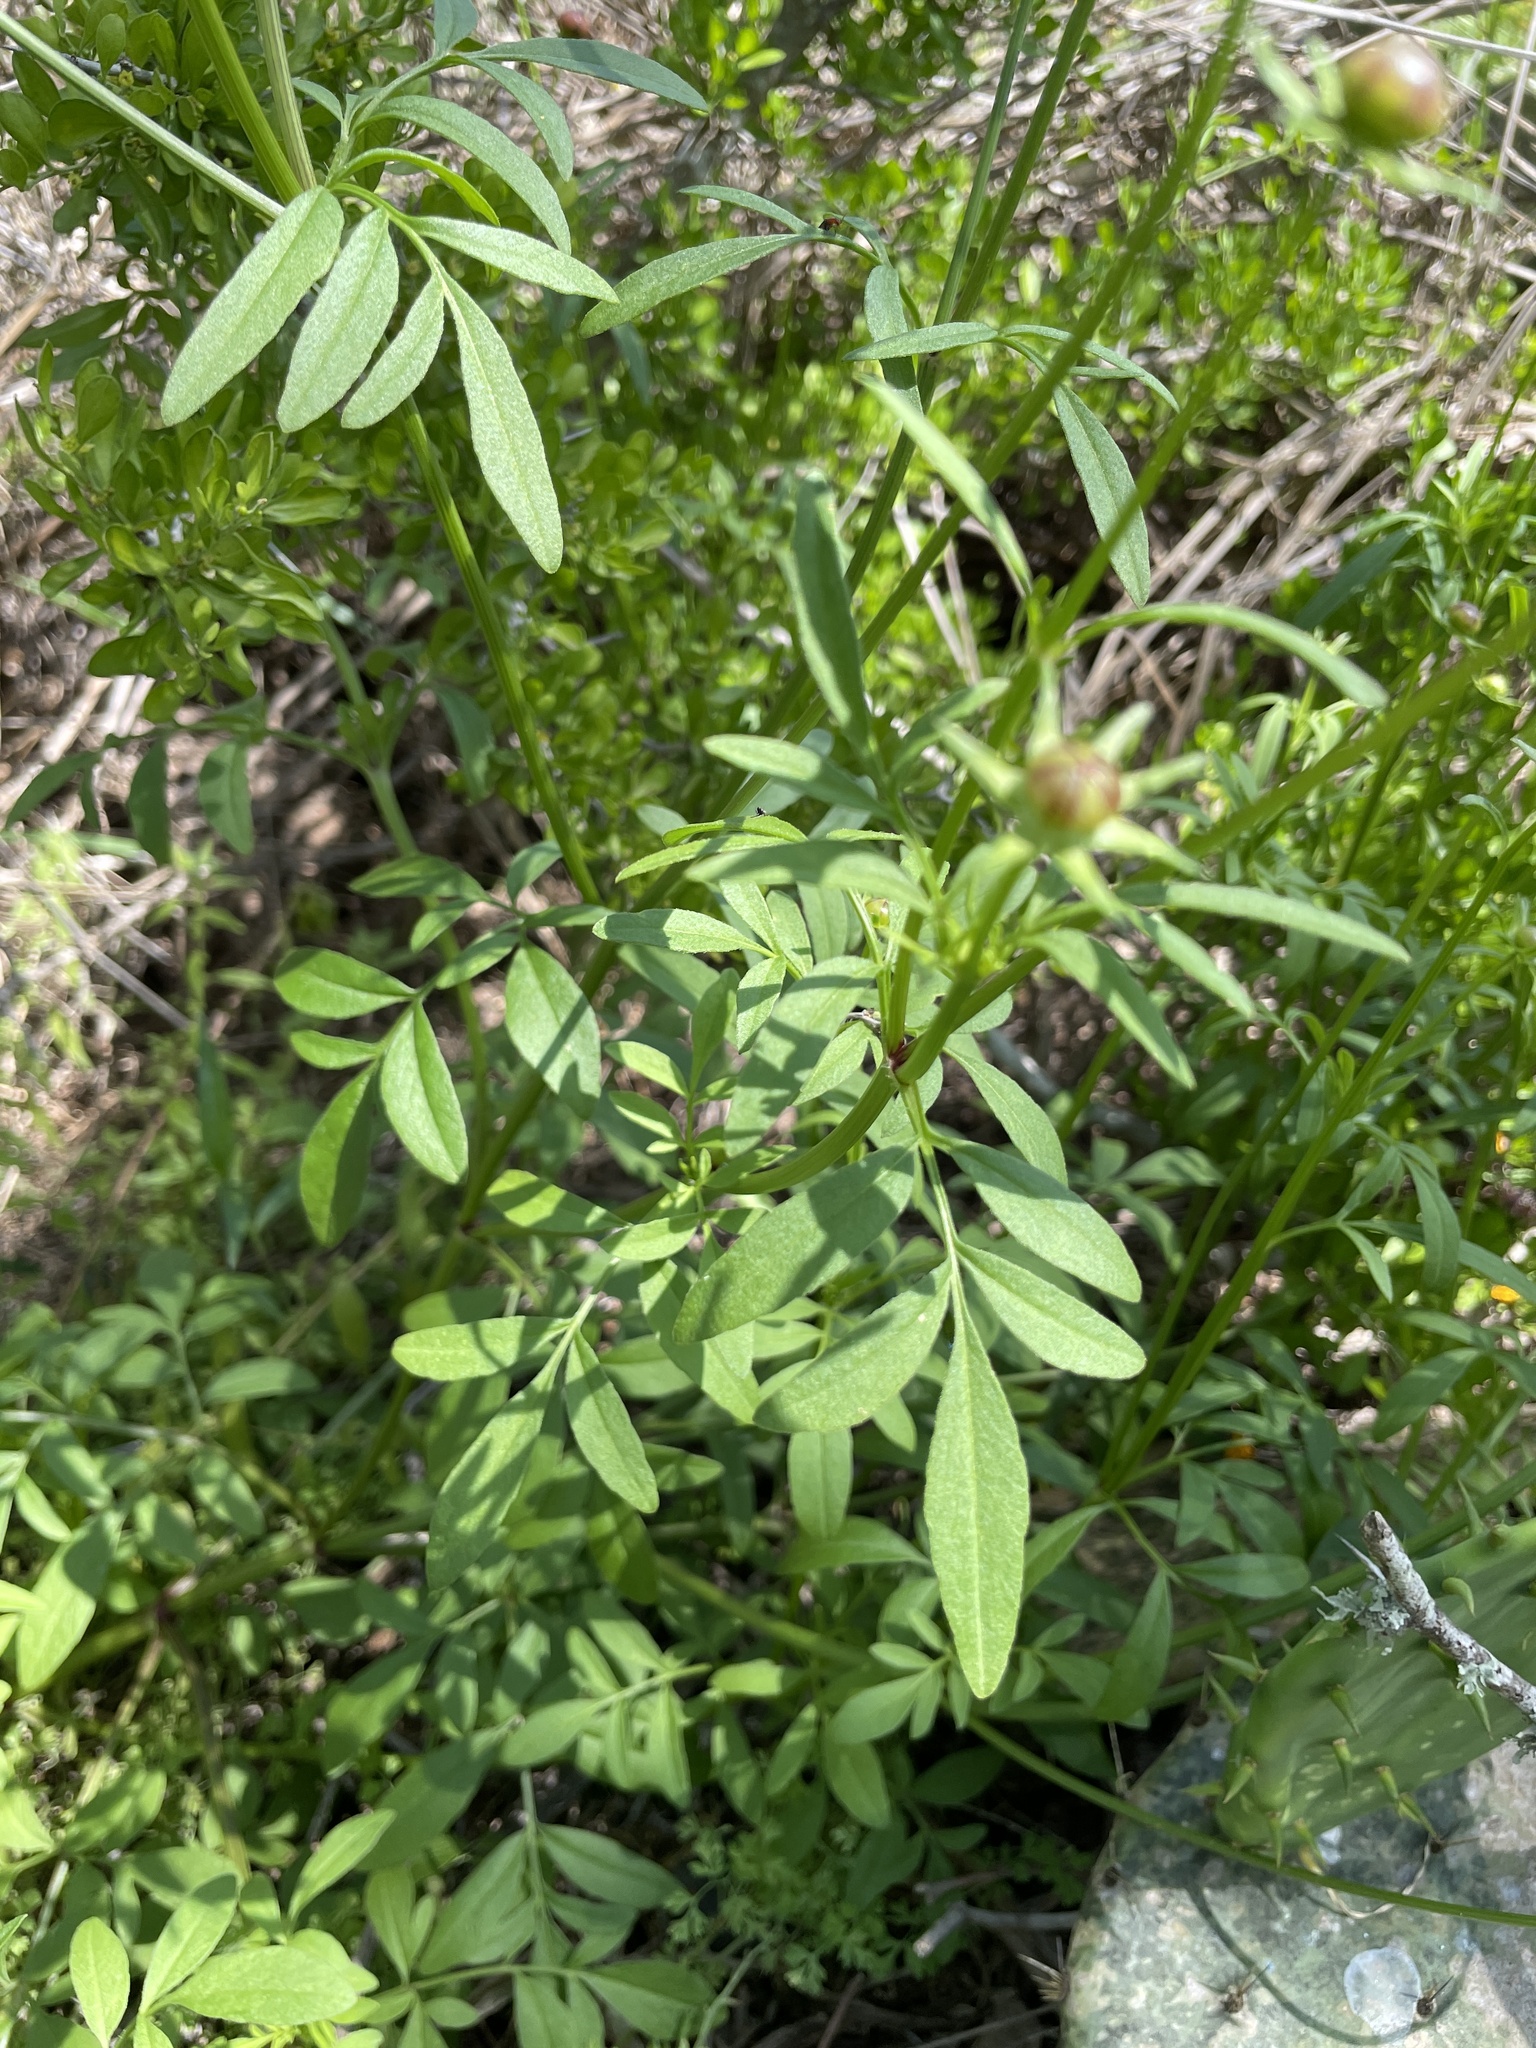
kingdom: Plantae
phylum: Tracheophyta
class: Magnoliopsida
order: Asterales
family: Asteraceae
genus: Coreopsis
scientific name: Coreopsis basalis
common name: Golden-mane coreopsis
